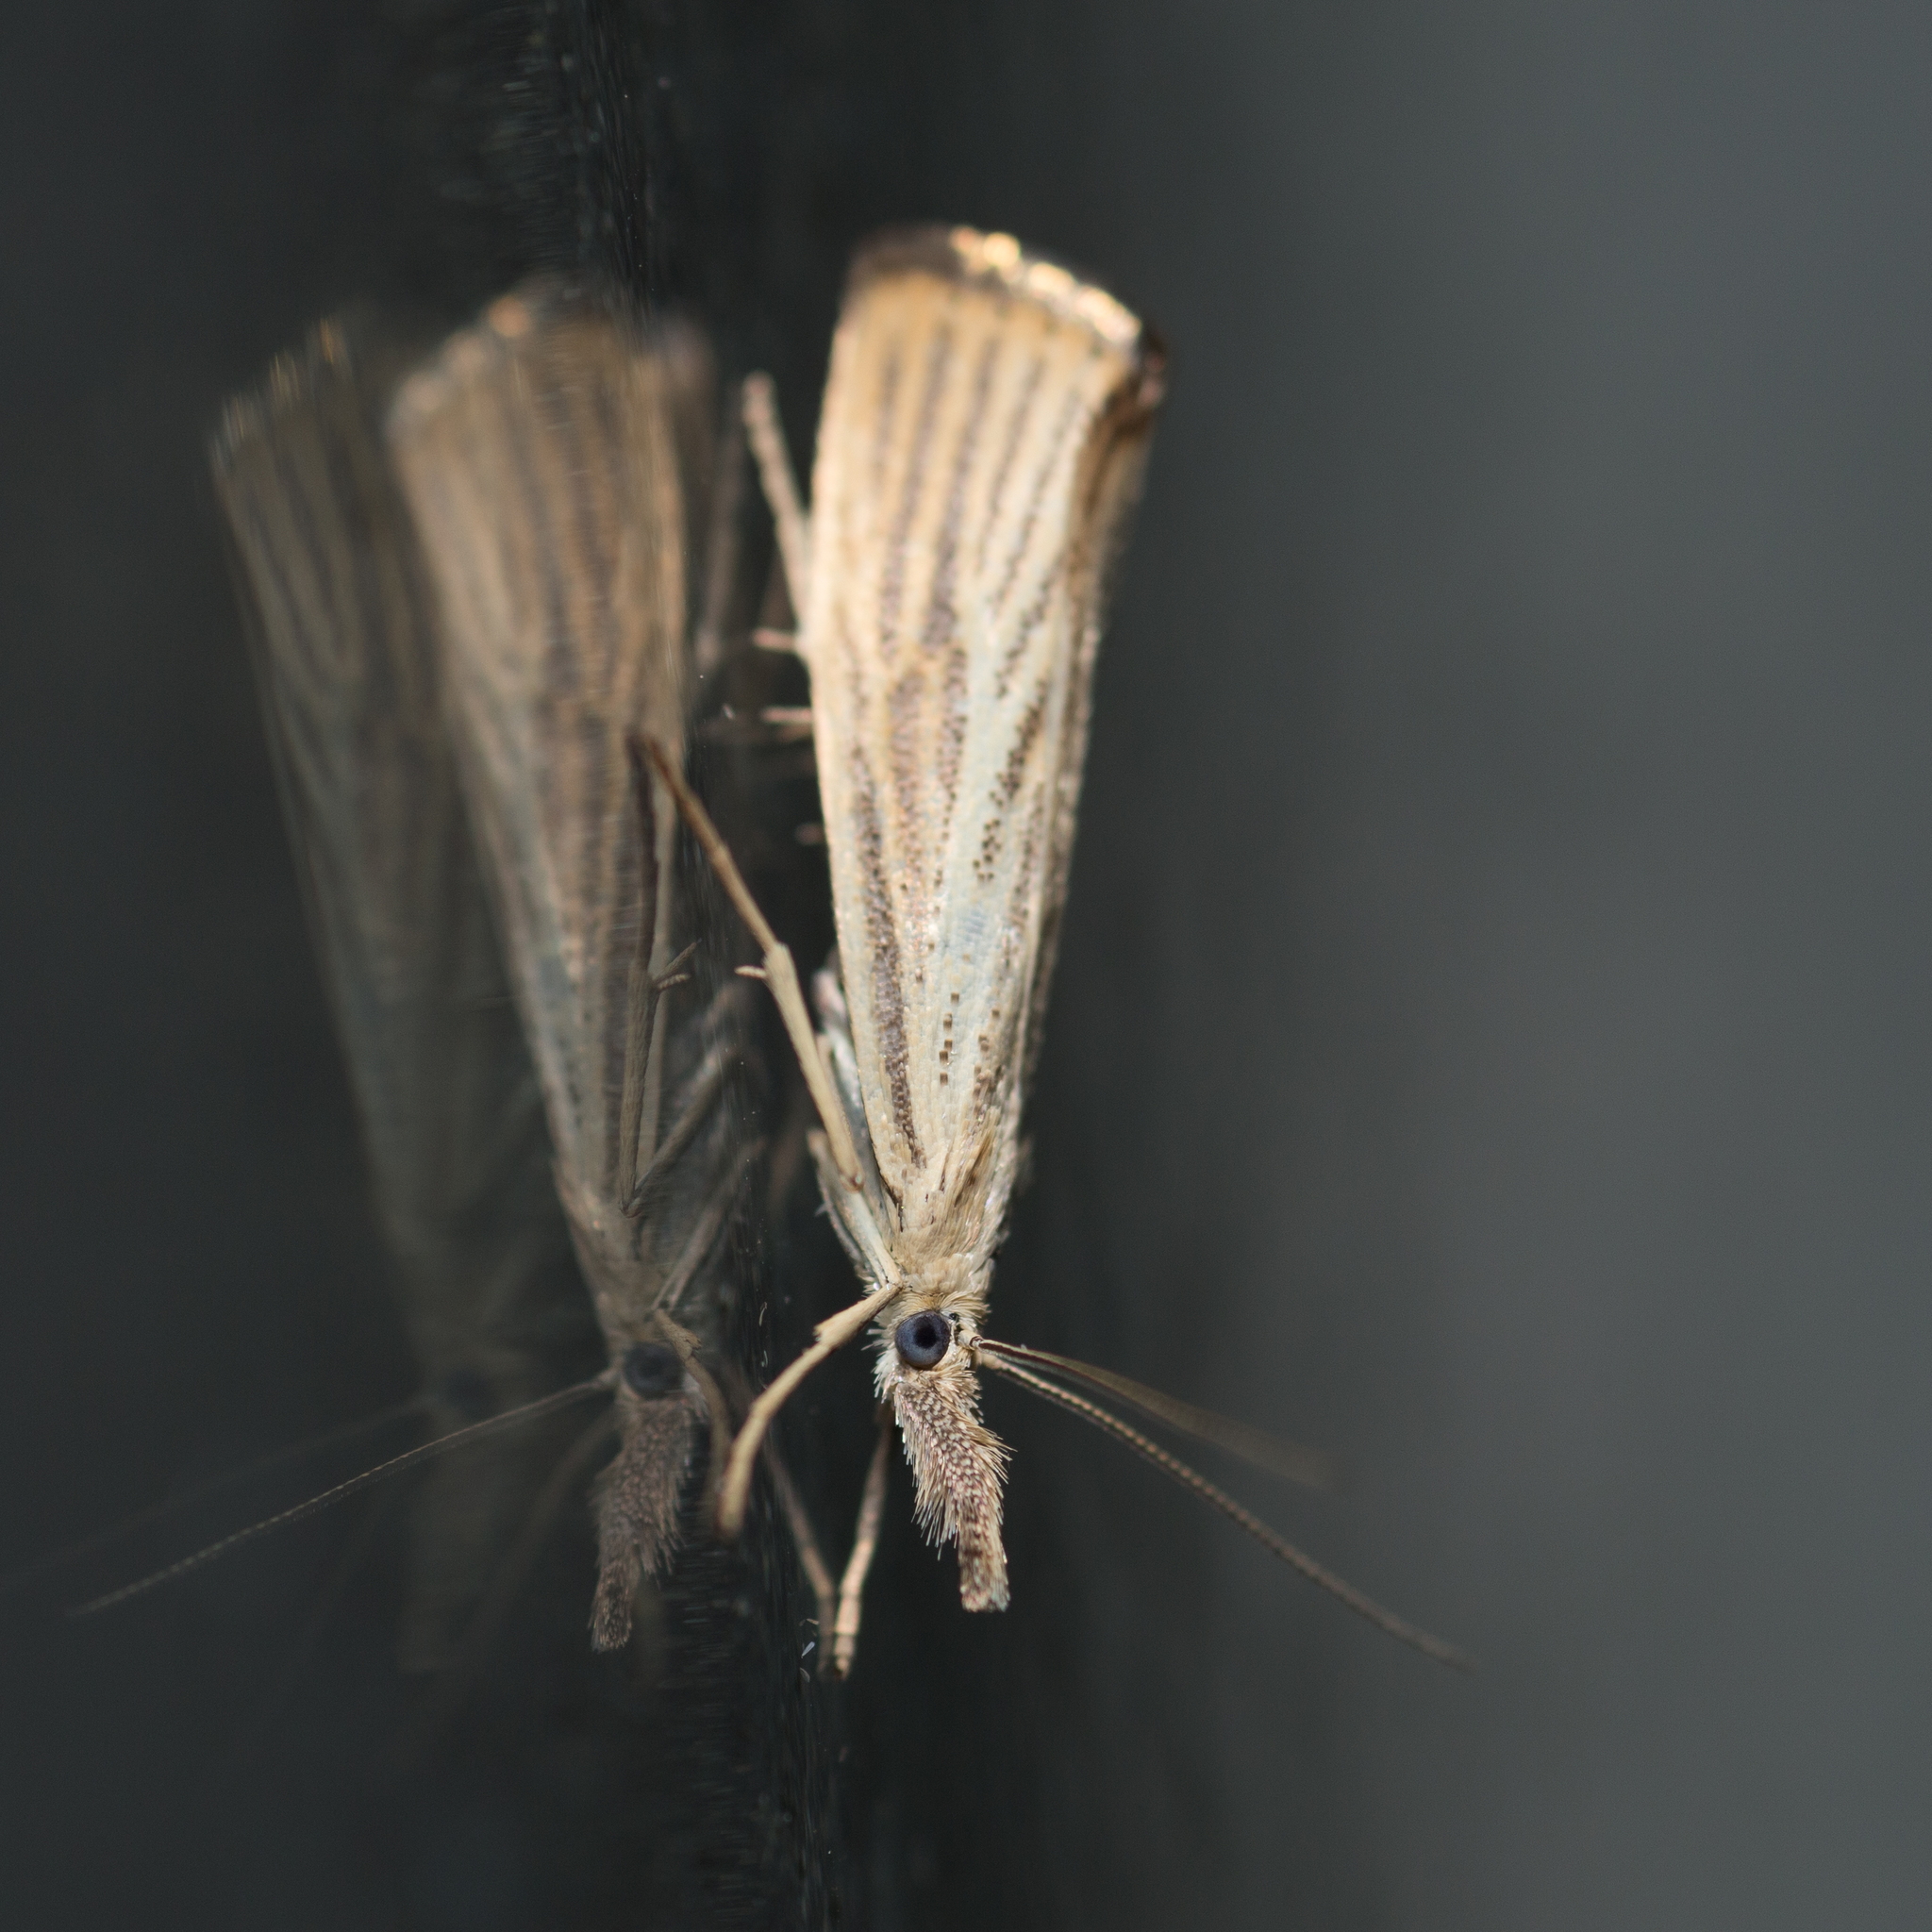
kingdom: Animalia
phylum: Arthropoda
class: Insecta
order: Lepidoptera
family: Crambidae
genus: Agriphila
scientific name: Agriphila straminella
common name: Straw grass-veneer
